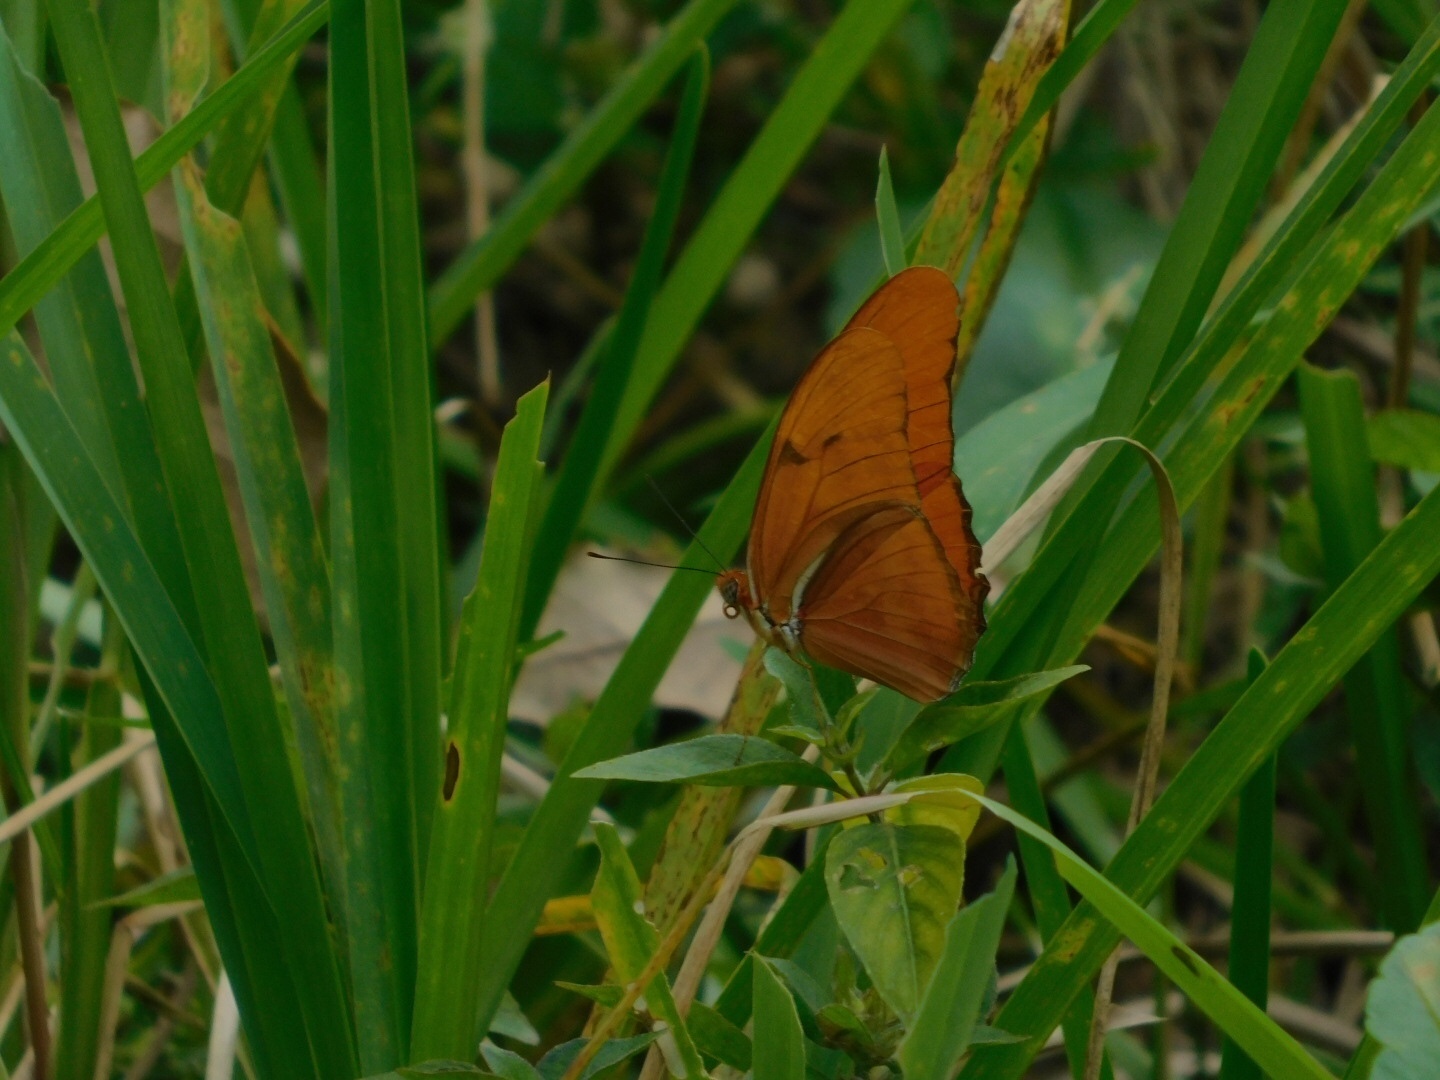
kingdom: Animalia
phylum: Arthropoda
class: Insecta
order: Lepidoptera
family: Nymphalidae
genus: Dryas
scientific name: Dryas iulia
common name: Flambeau
